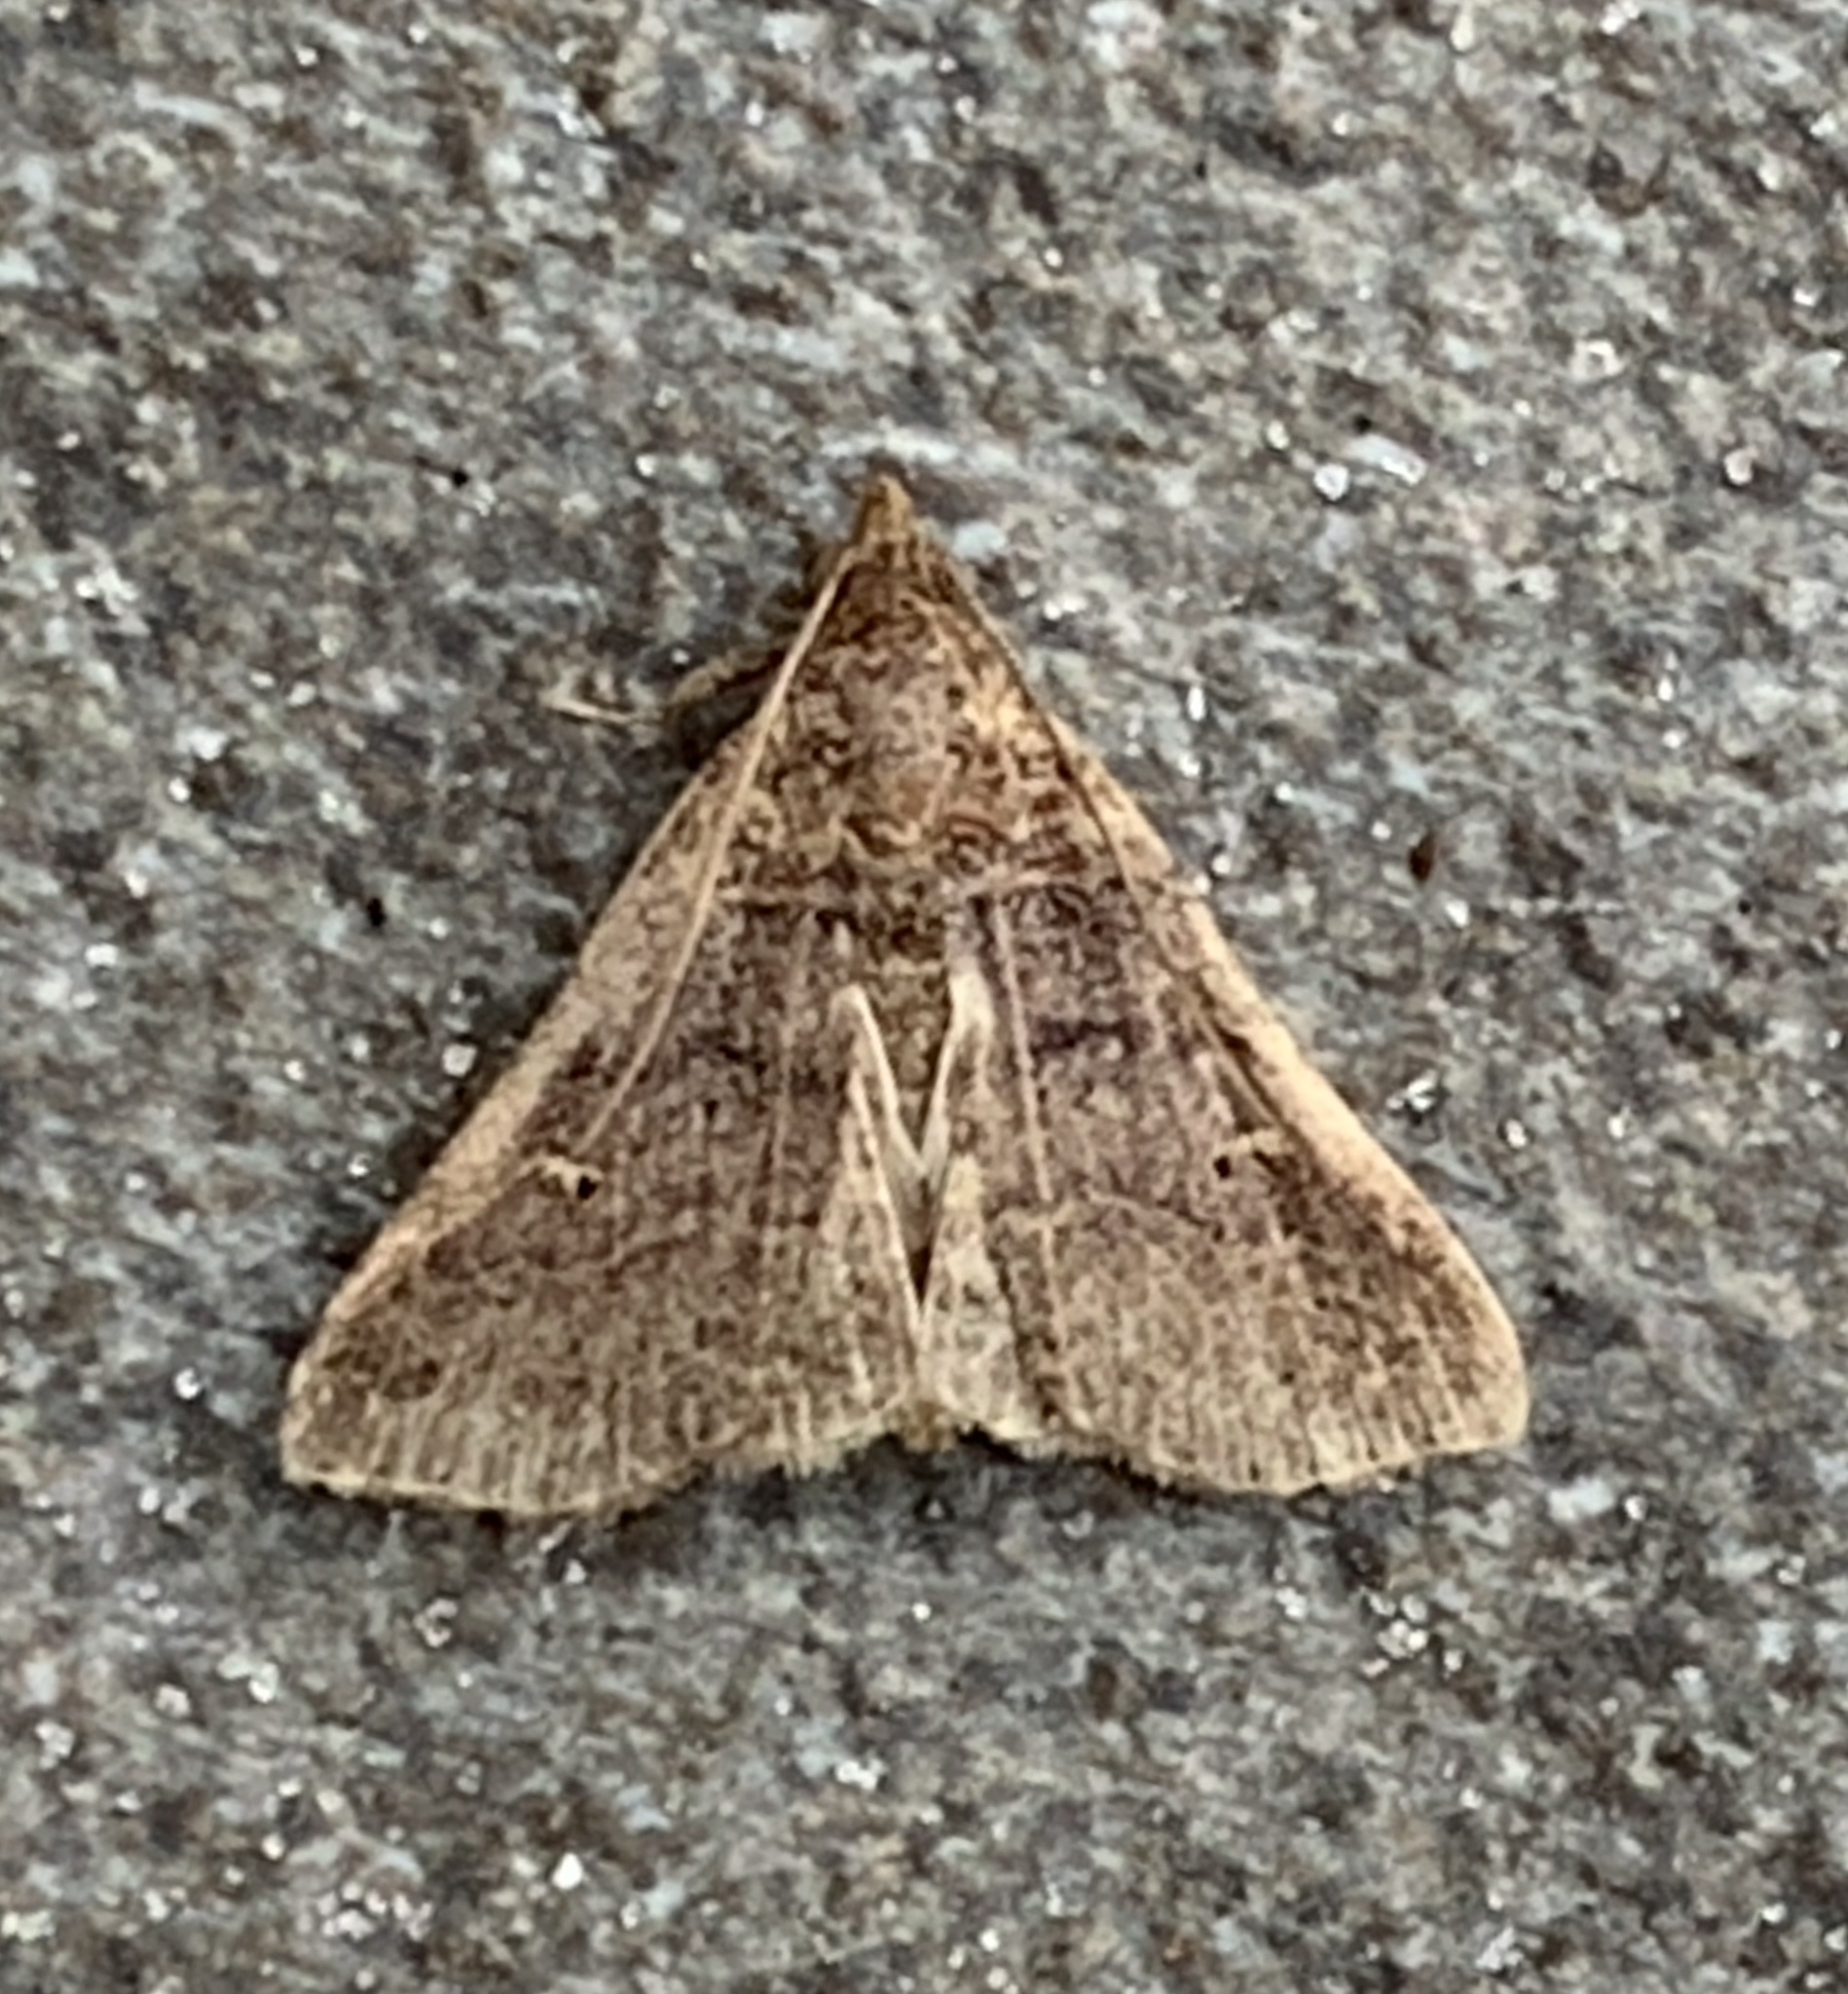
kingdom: Animalia
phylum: Arthropoda
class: Insecta
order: Lepidoptera
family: Erebidae
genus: Bleptina
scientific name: Bleptina flavivena
